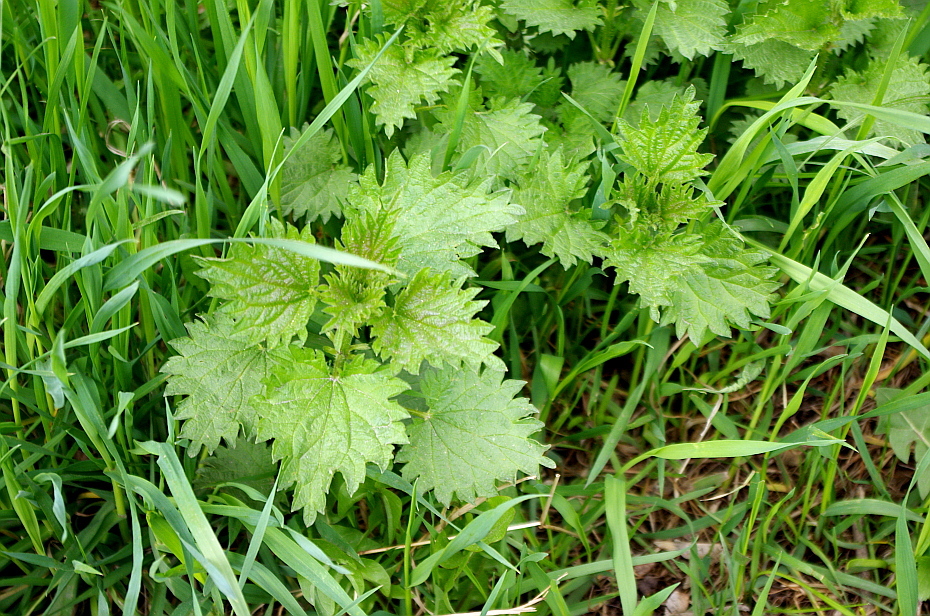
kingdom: Plantae
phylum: Tracheophyta
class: Magnoliopsida
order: Rosales
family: Urticaceae
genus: Urtica
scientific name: Urtica dioica
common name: Common nettle
